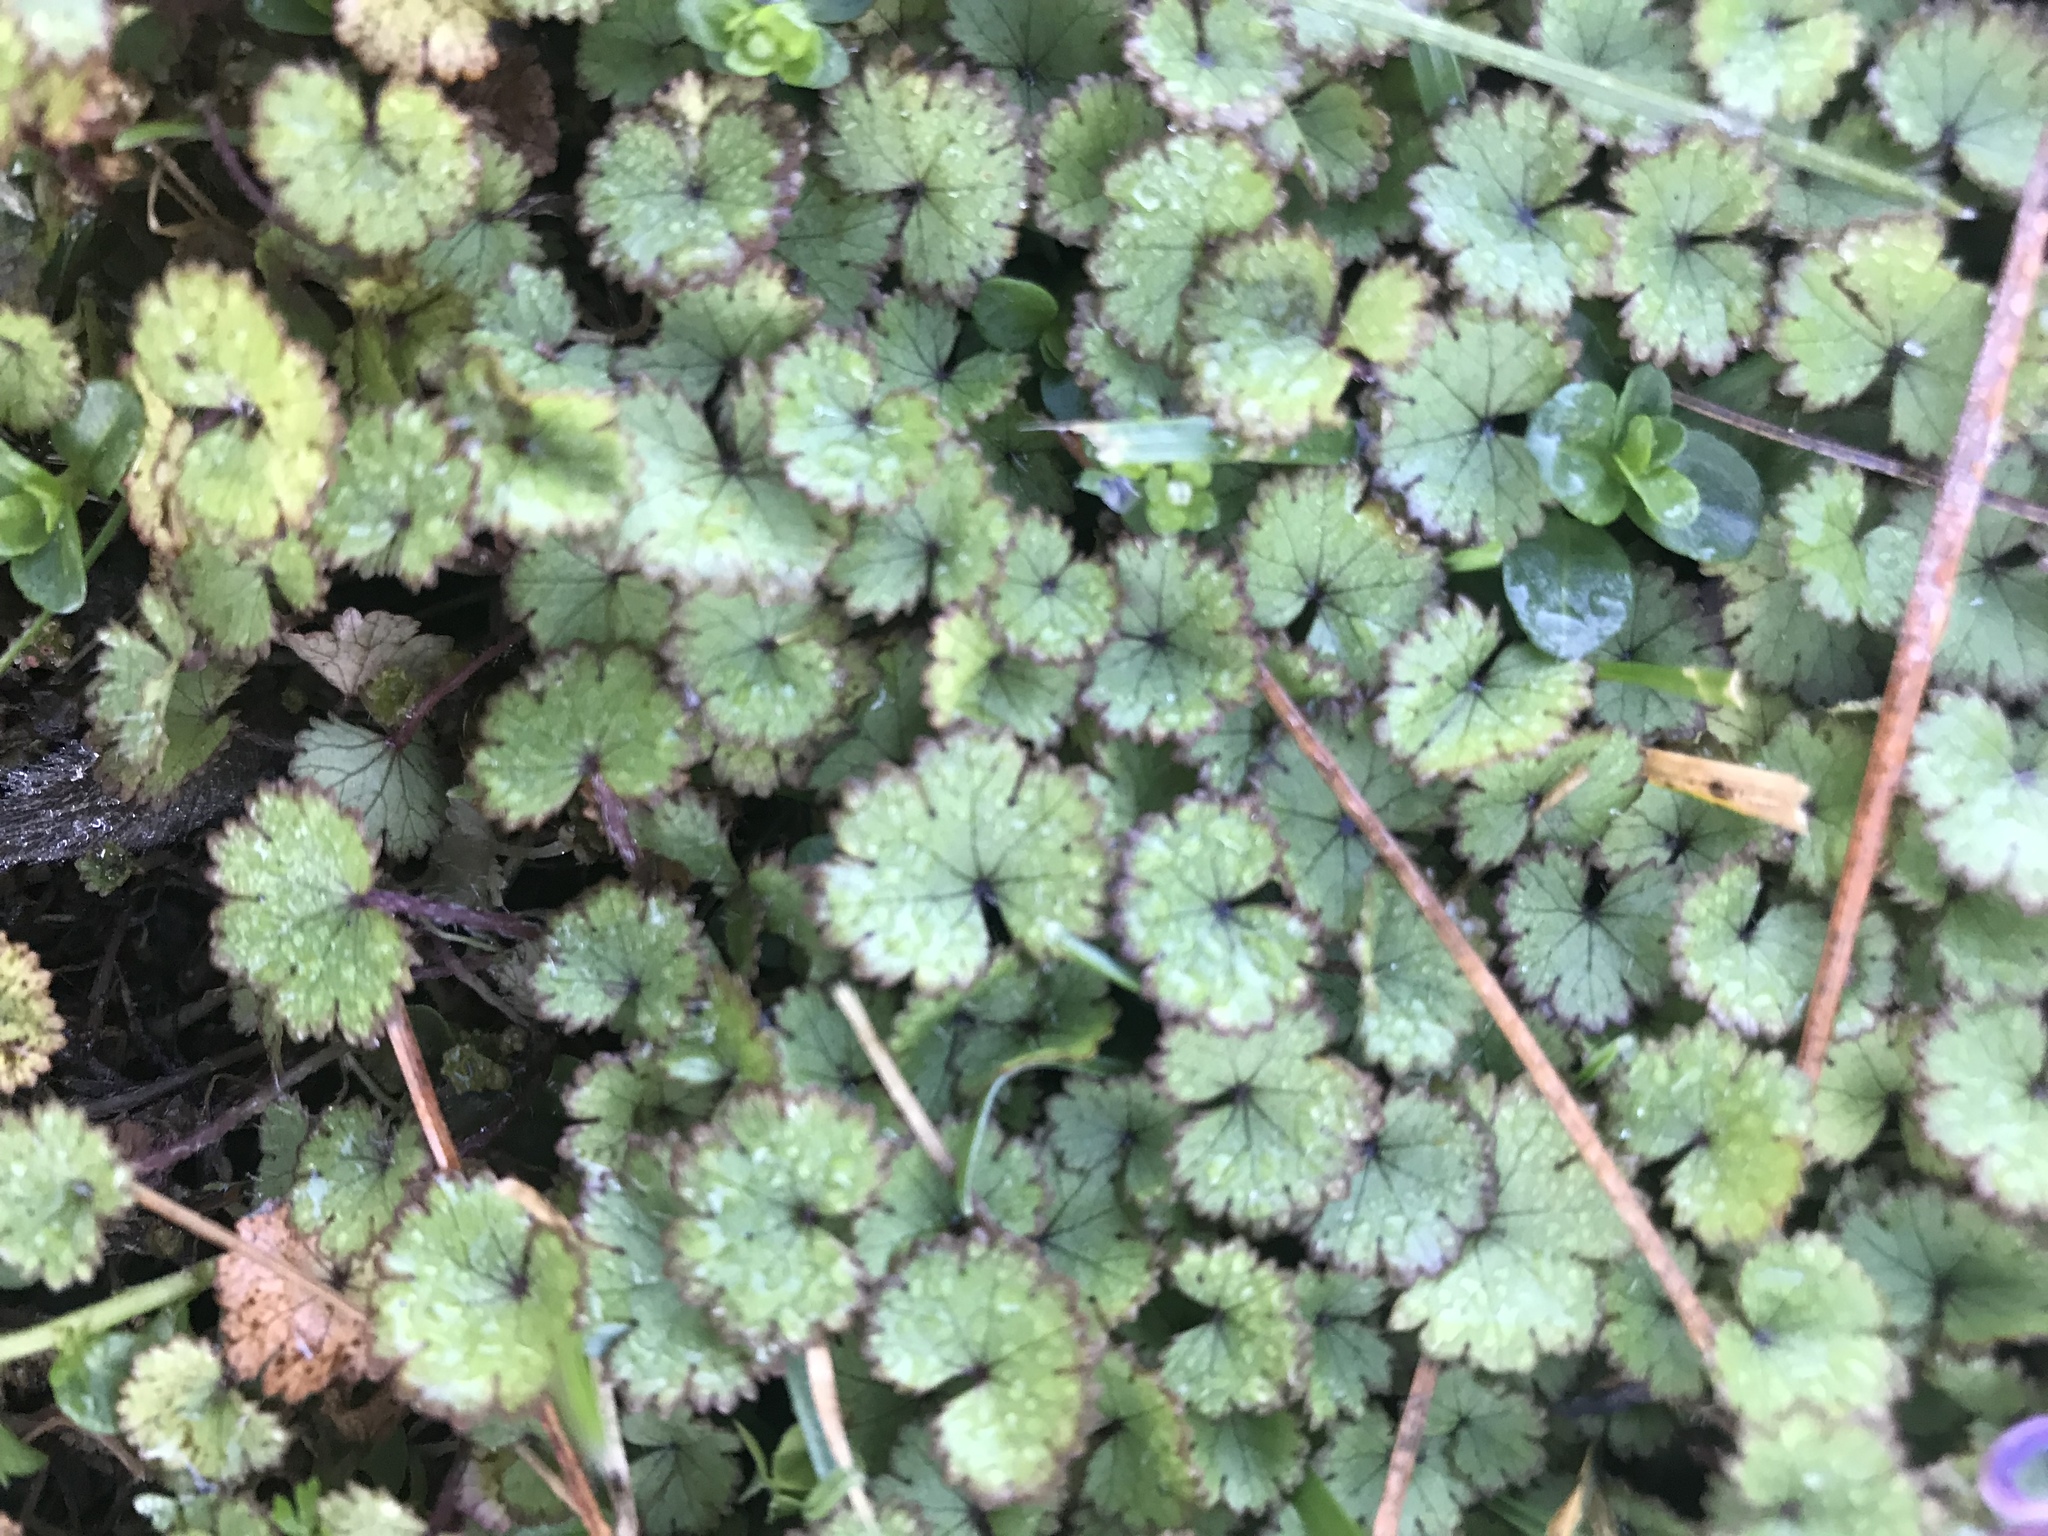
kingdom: Plantae
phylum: Tracheophyta
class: Magnoliopsida
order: Apiales
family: Araliaceae
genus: Hydrocotyle
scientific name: Hydrocotyle moschata
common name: Hairy pennywort
